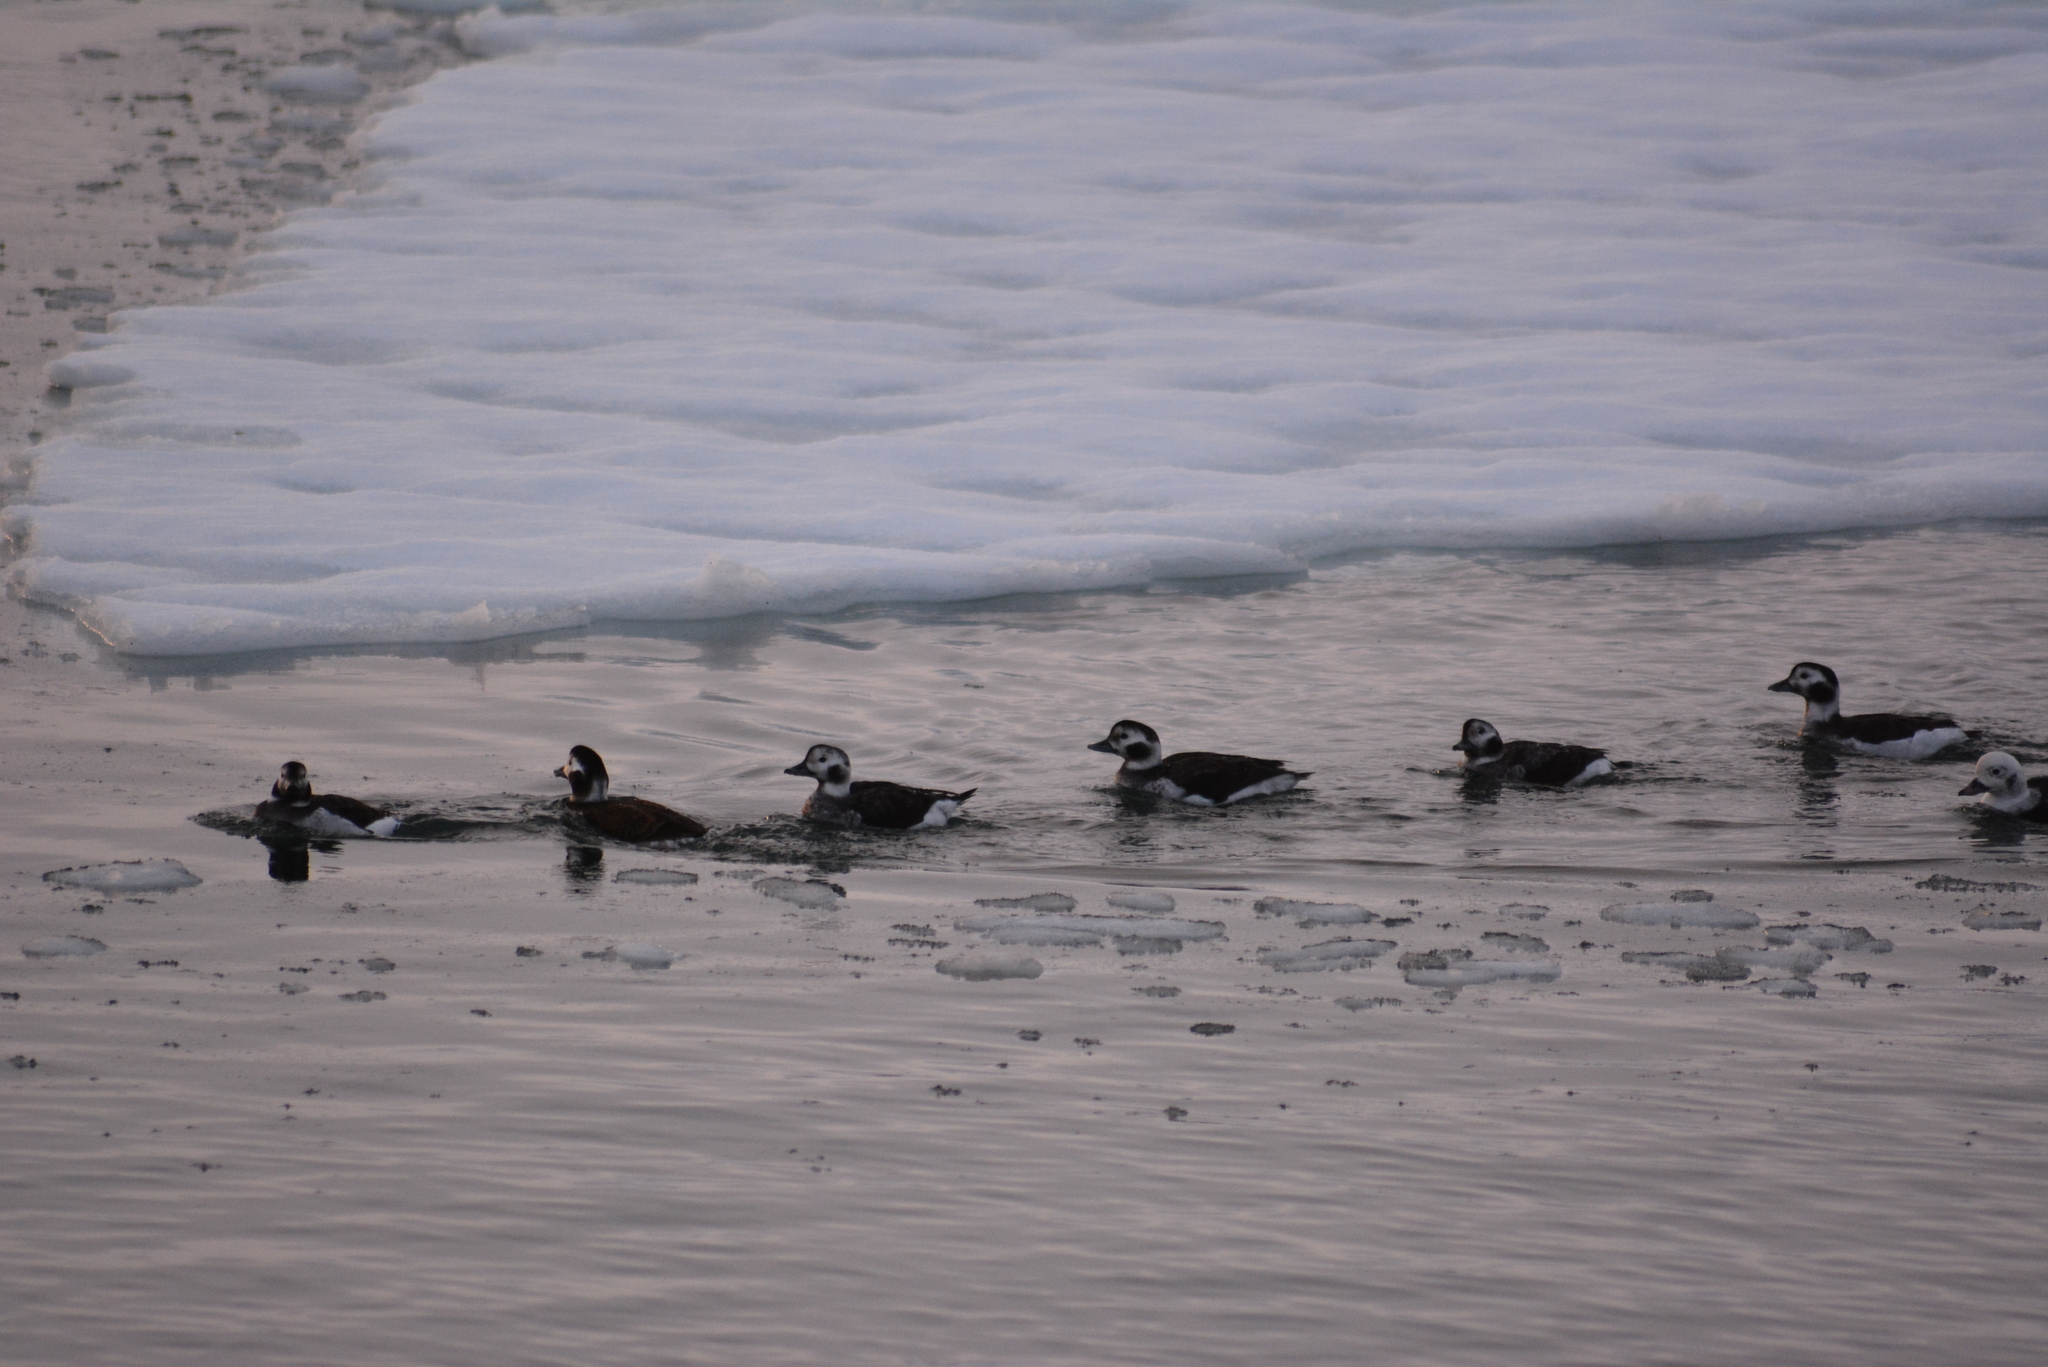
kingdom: Animalia
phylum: Chordata
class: Aves
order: Anseriformes
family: Anatidae
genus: Clangula
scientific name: Clangula hyemalis
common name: Long-tailed duck
